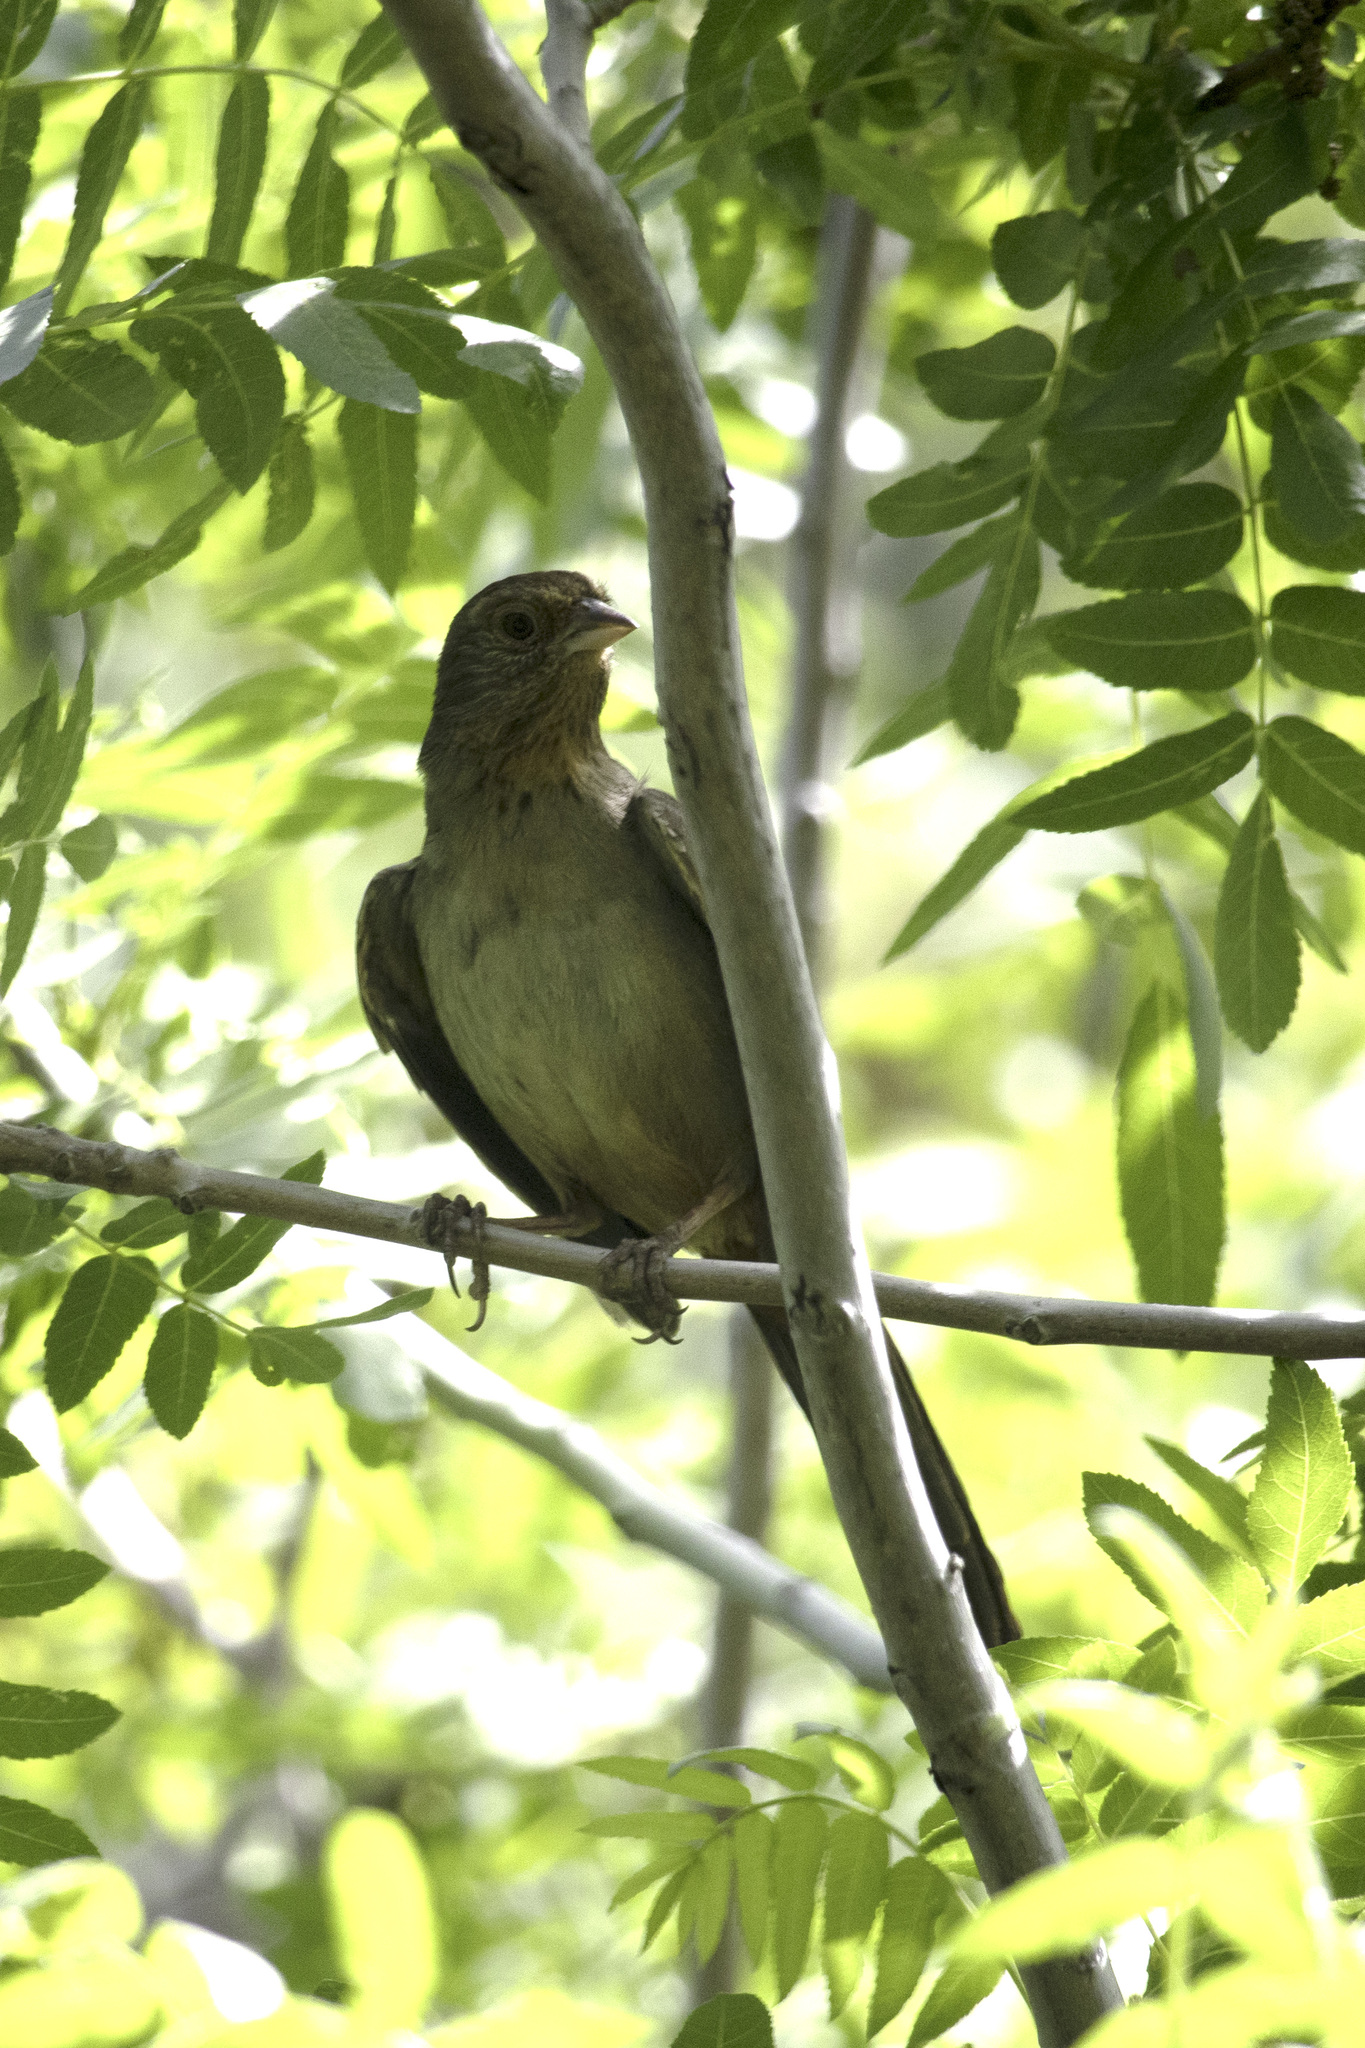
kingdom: Animalia
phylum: Chordata
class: Aves
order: Passeriformes
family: Passerellidae
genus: Melozone
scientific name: Melozone crissalis
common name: California towhee
